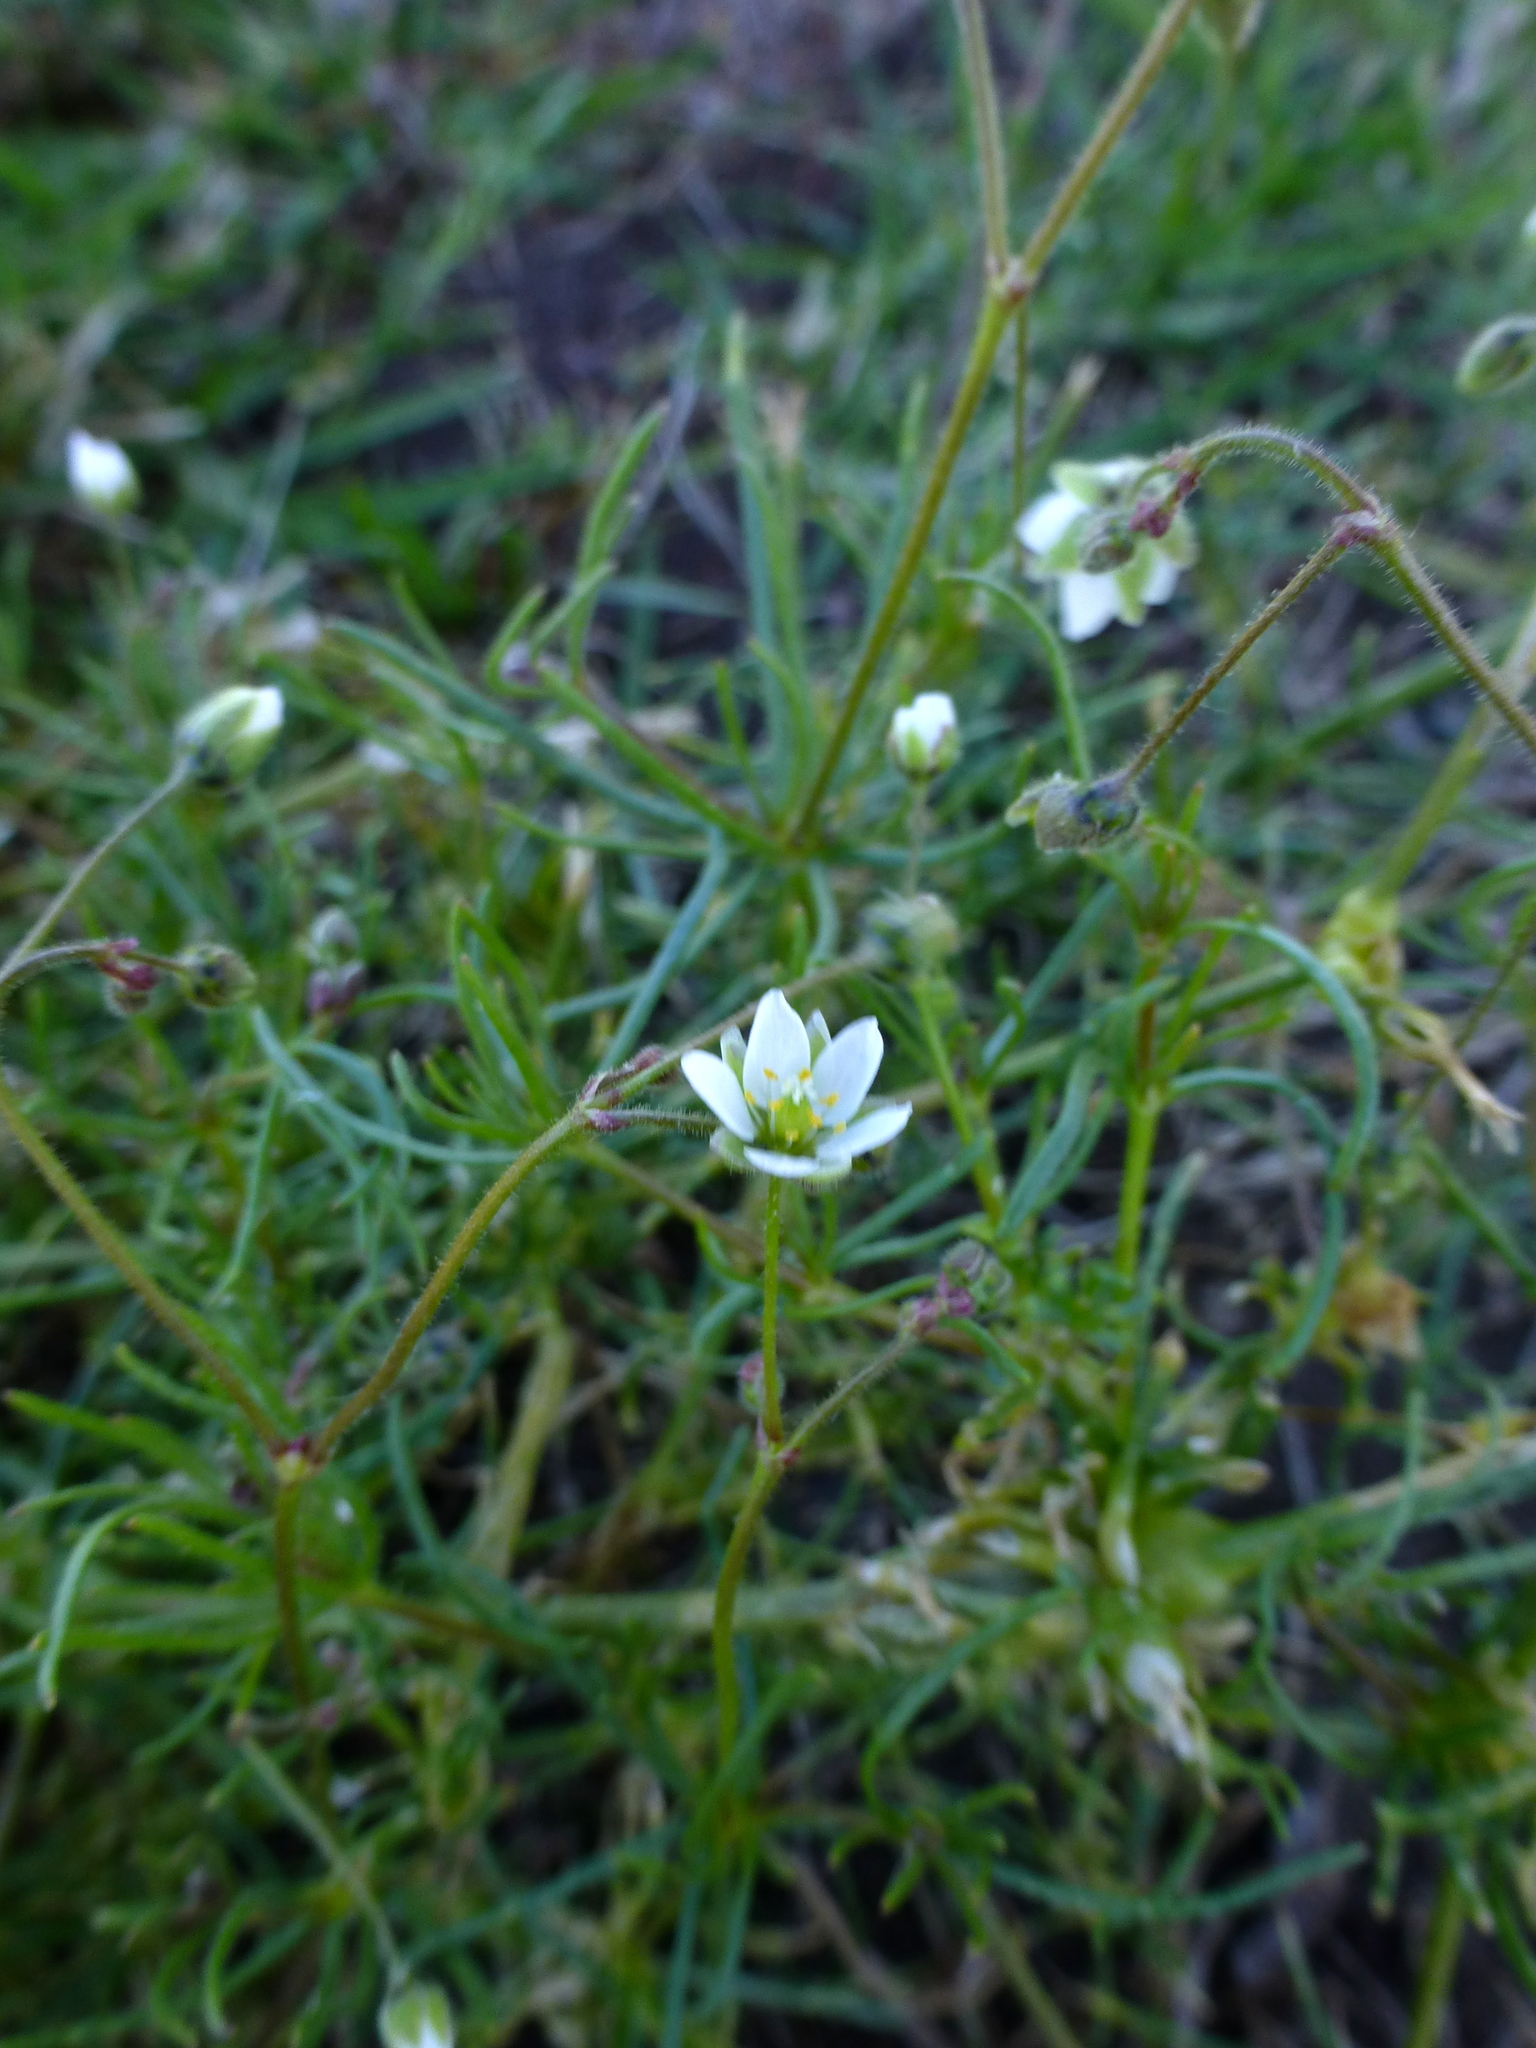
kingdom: Plantae
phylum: Tracheophyta
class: Magnoliopsida
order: Caryophyllales
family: Caryophyllaceae
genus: Spergula
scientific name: Spergula arvensis
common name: Corn spurrey
